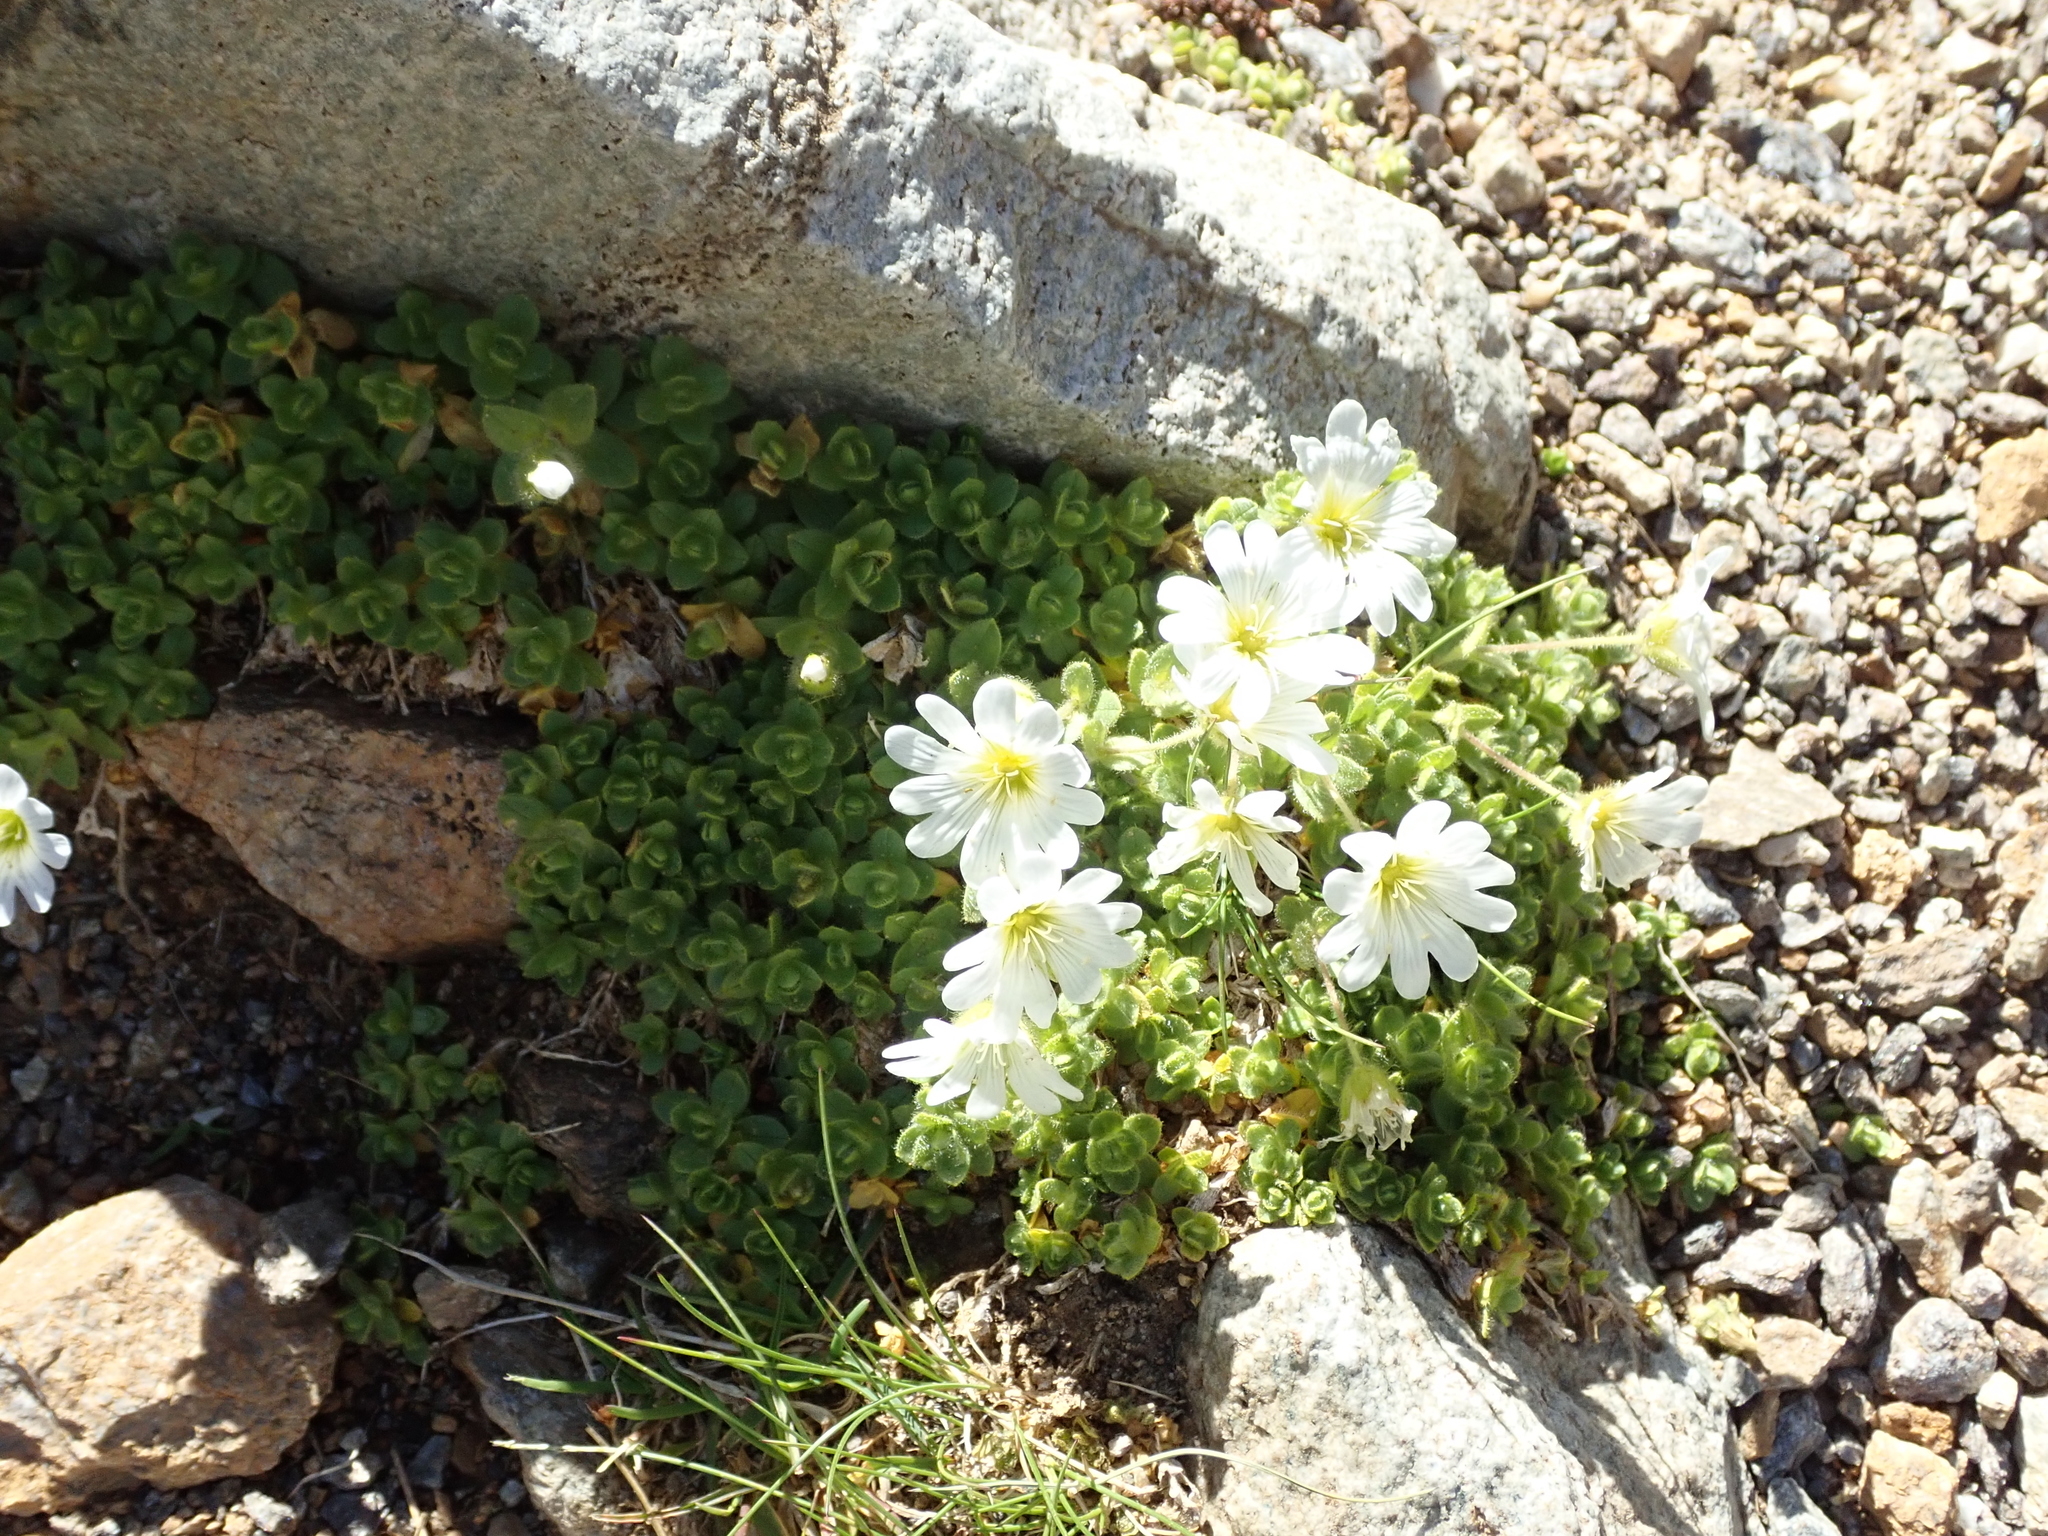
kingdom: Plantae
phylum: Tracheophyta
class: Magnoliopsida
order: Caryophyllales
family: Caryophyllaceae
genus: Cerastium
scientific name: Cerastium uniflorum
